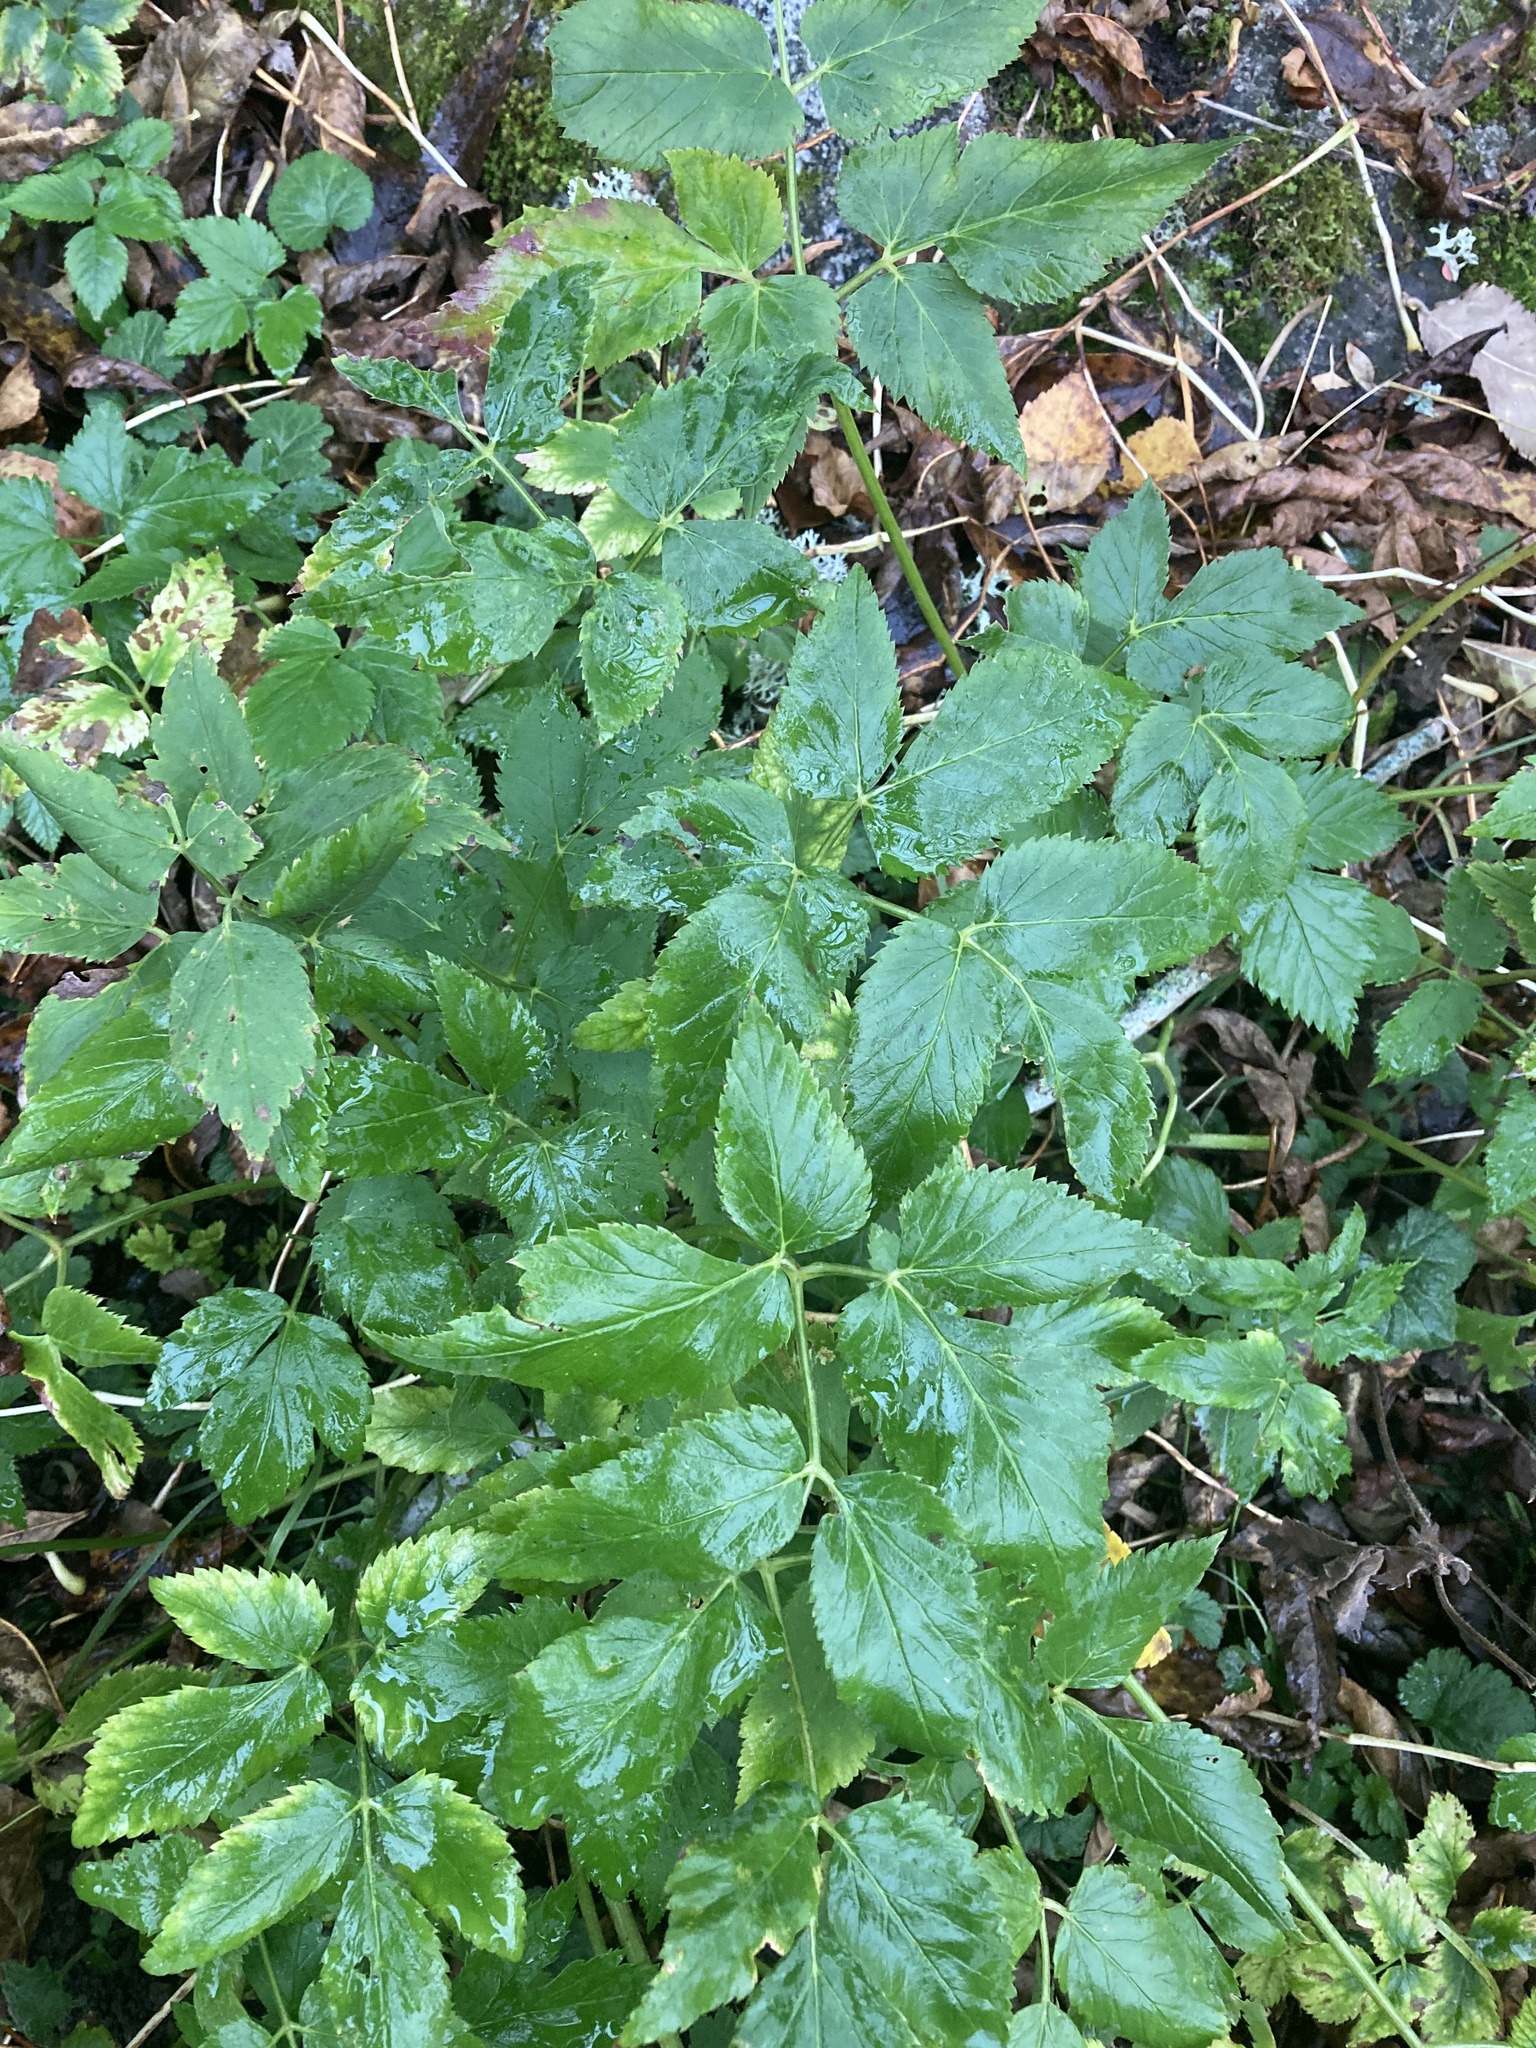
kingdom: Plantae
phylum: Tracheophyta
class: Magnoliopsida
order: Apiales
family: Apiaceae
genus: Aegopodium
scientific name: Aegopodium podagraria
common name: Ground-elder
